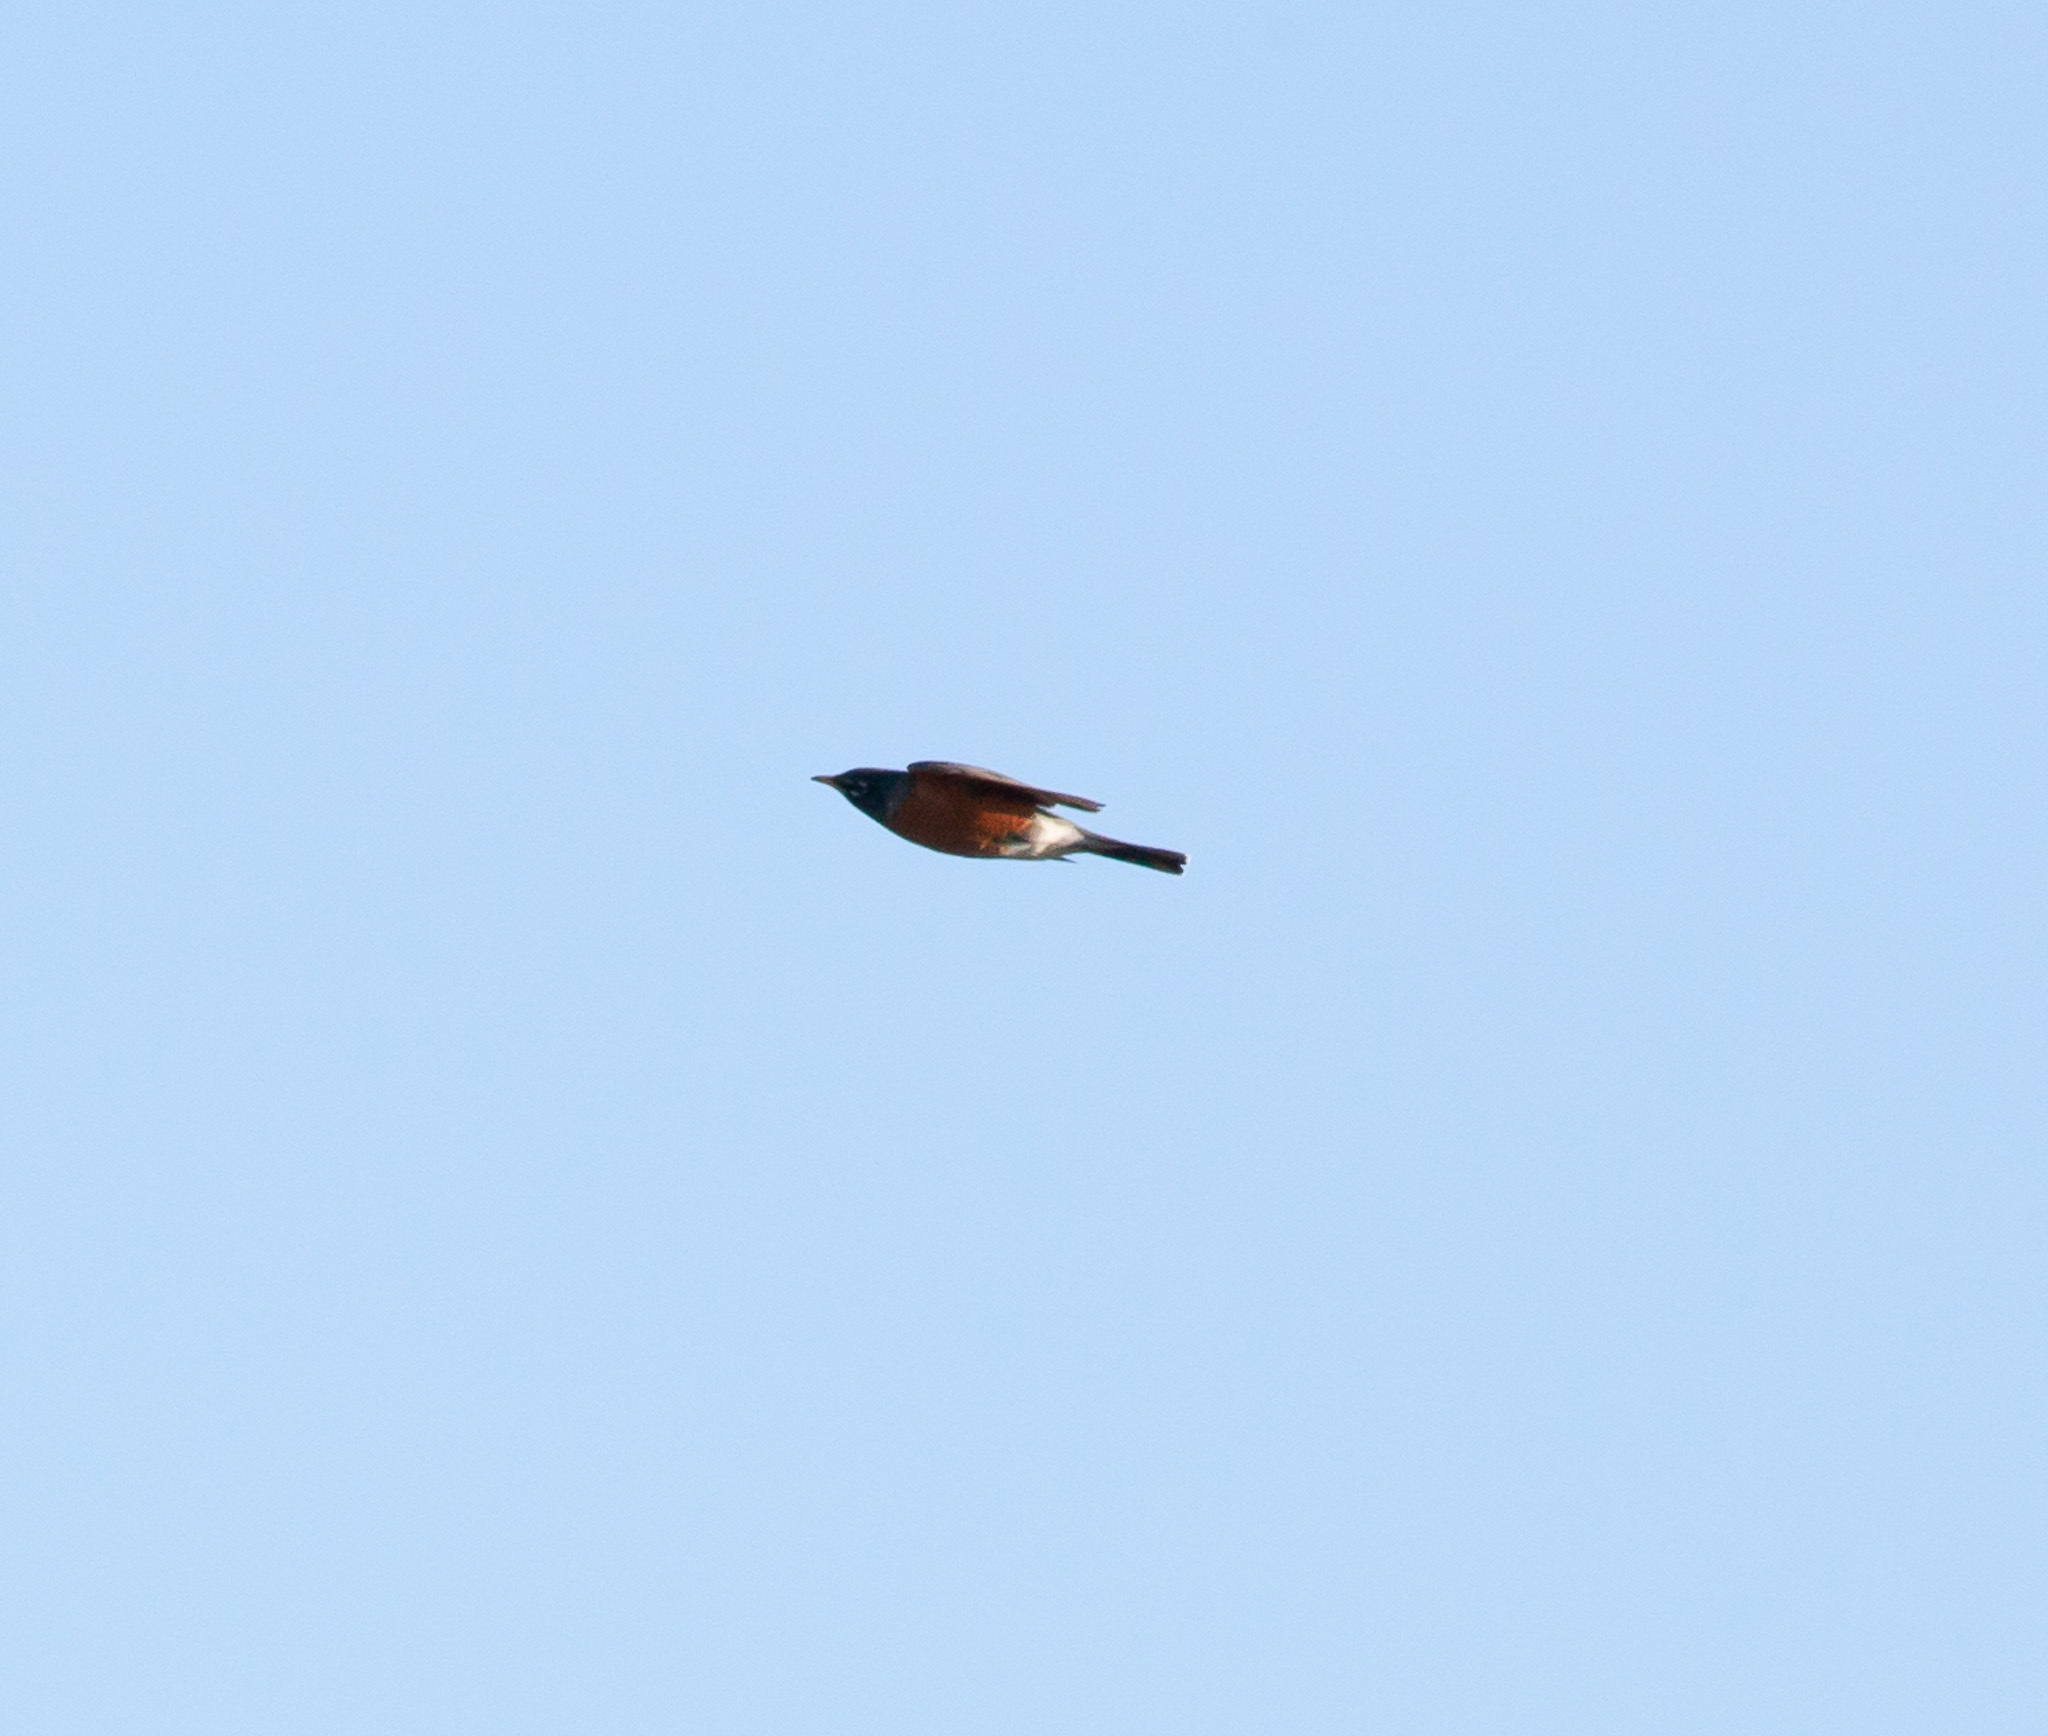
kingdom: Animalia
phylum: Chordata
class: Aves
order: Passeriformes
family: Turdidae
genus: Turdus
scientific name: Turdus migratorius
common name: American robin
